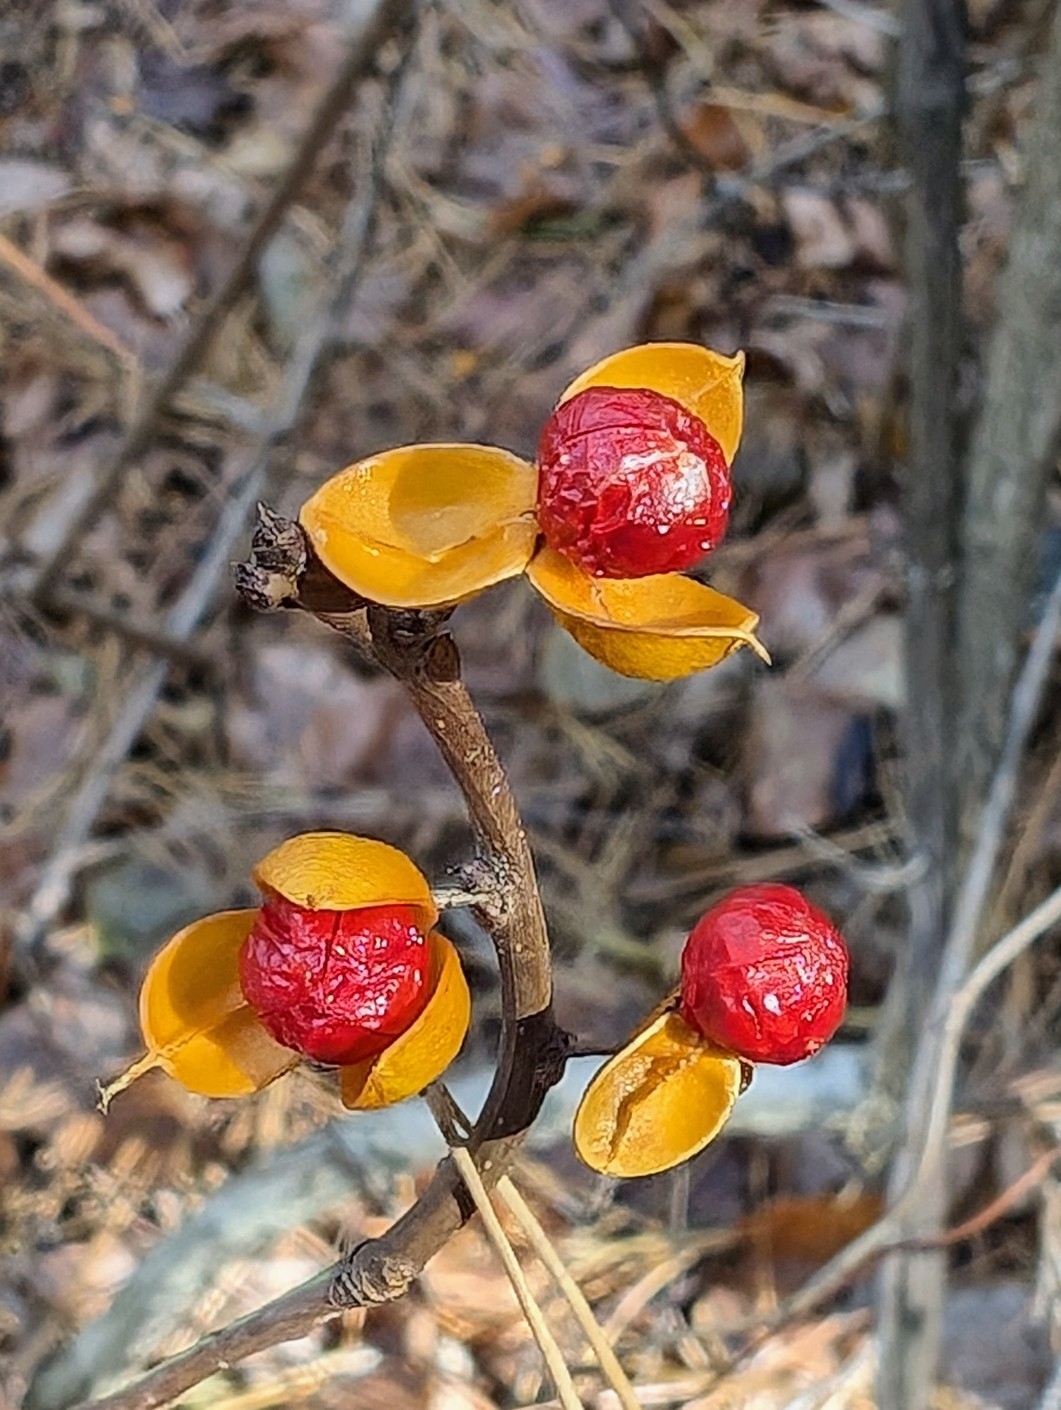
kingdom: Plantae
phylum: Tracheophyta
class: Magnoliopsida
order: Celastrales
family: Celastraceae
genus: Celastrus
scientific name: Celastrus orbiculatus
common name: Oriental bittersweet
